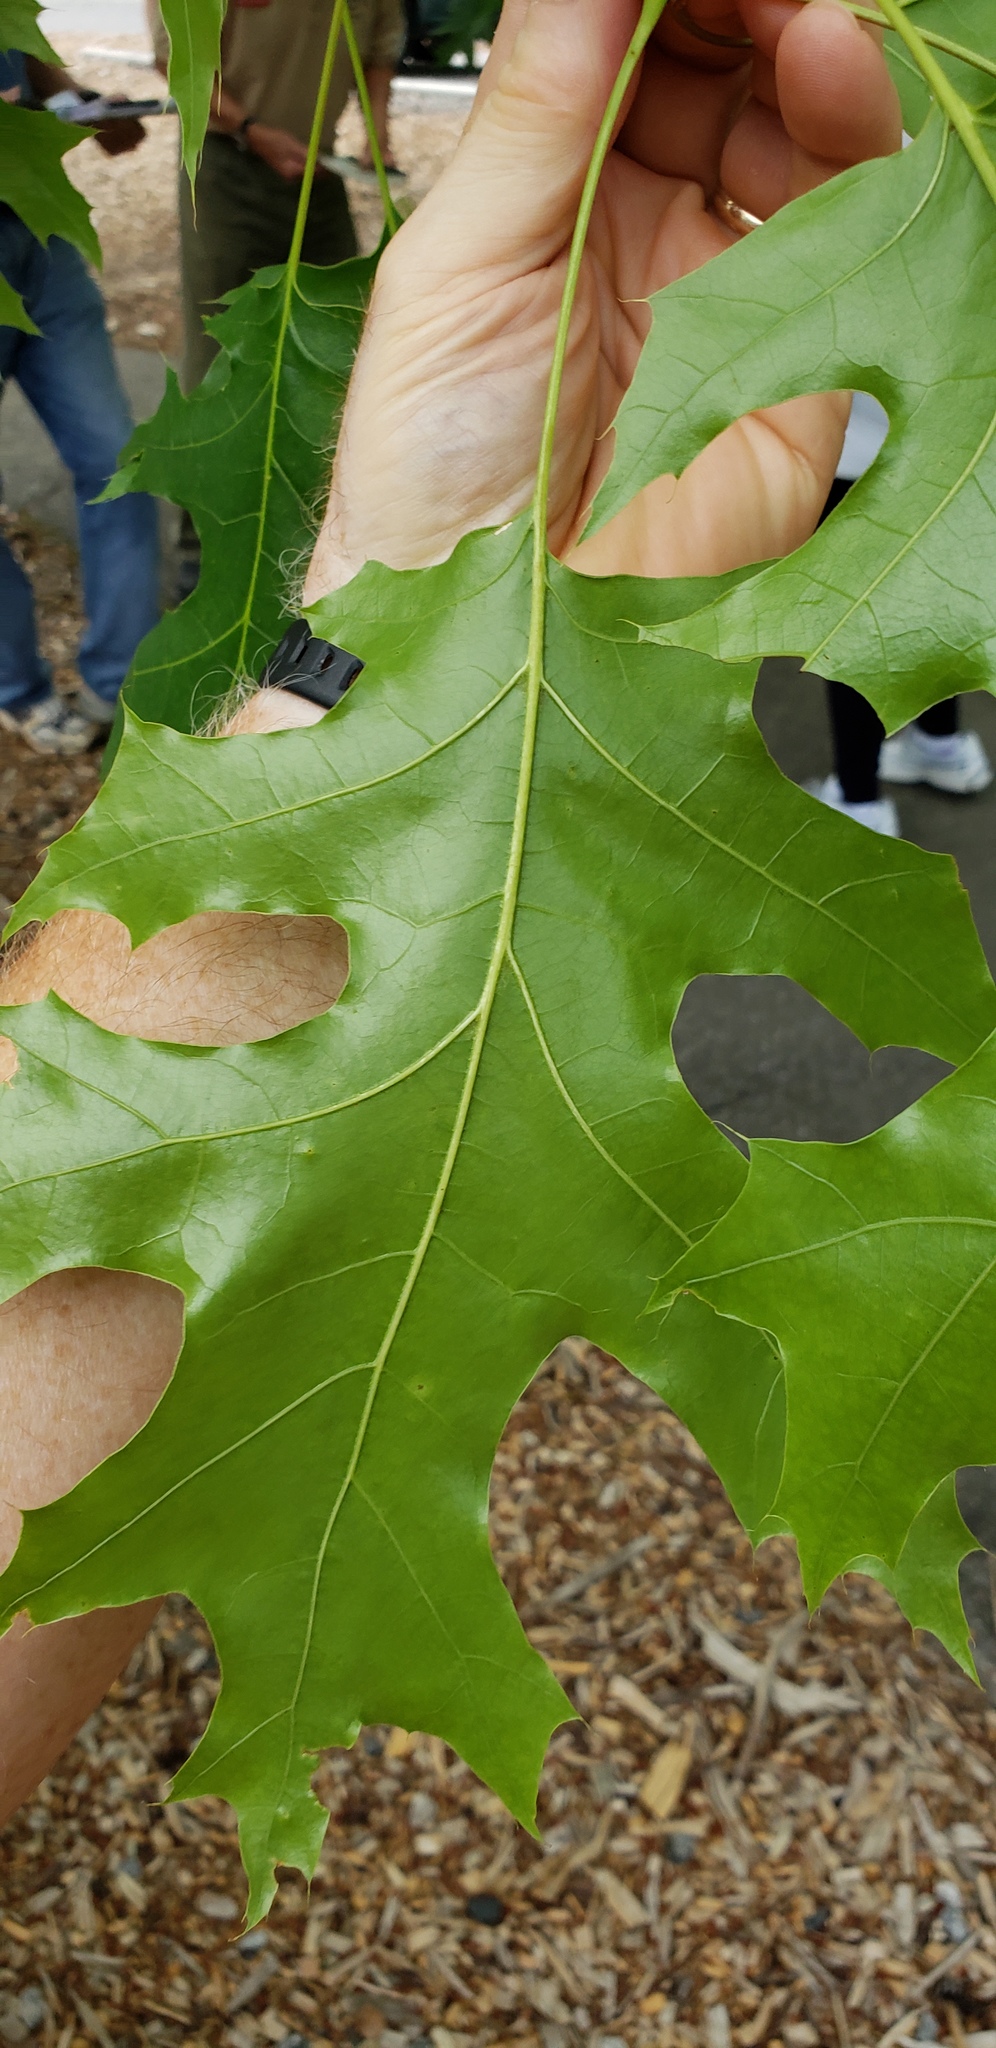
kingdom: Plantae
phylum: Tracheophyta
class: Magnoliopsida
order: Fagales
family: Fagaceae
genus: Quercus
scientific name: Quercus rubra
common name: Red oak
